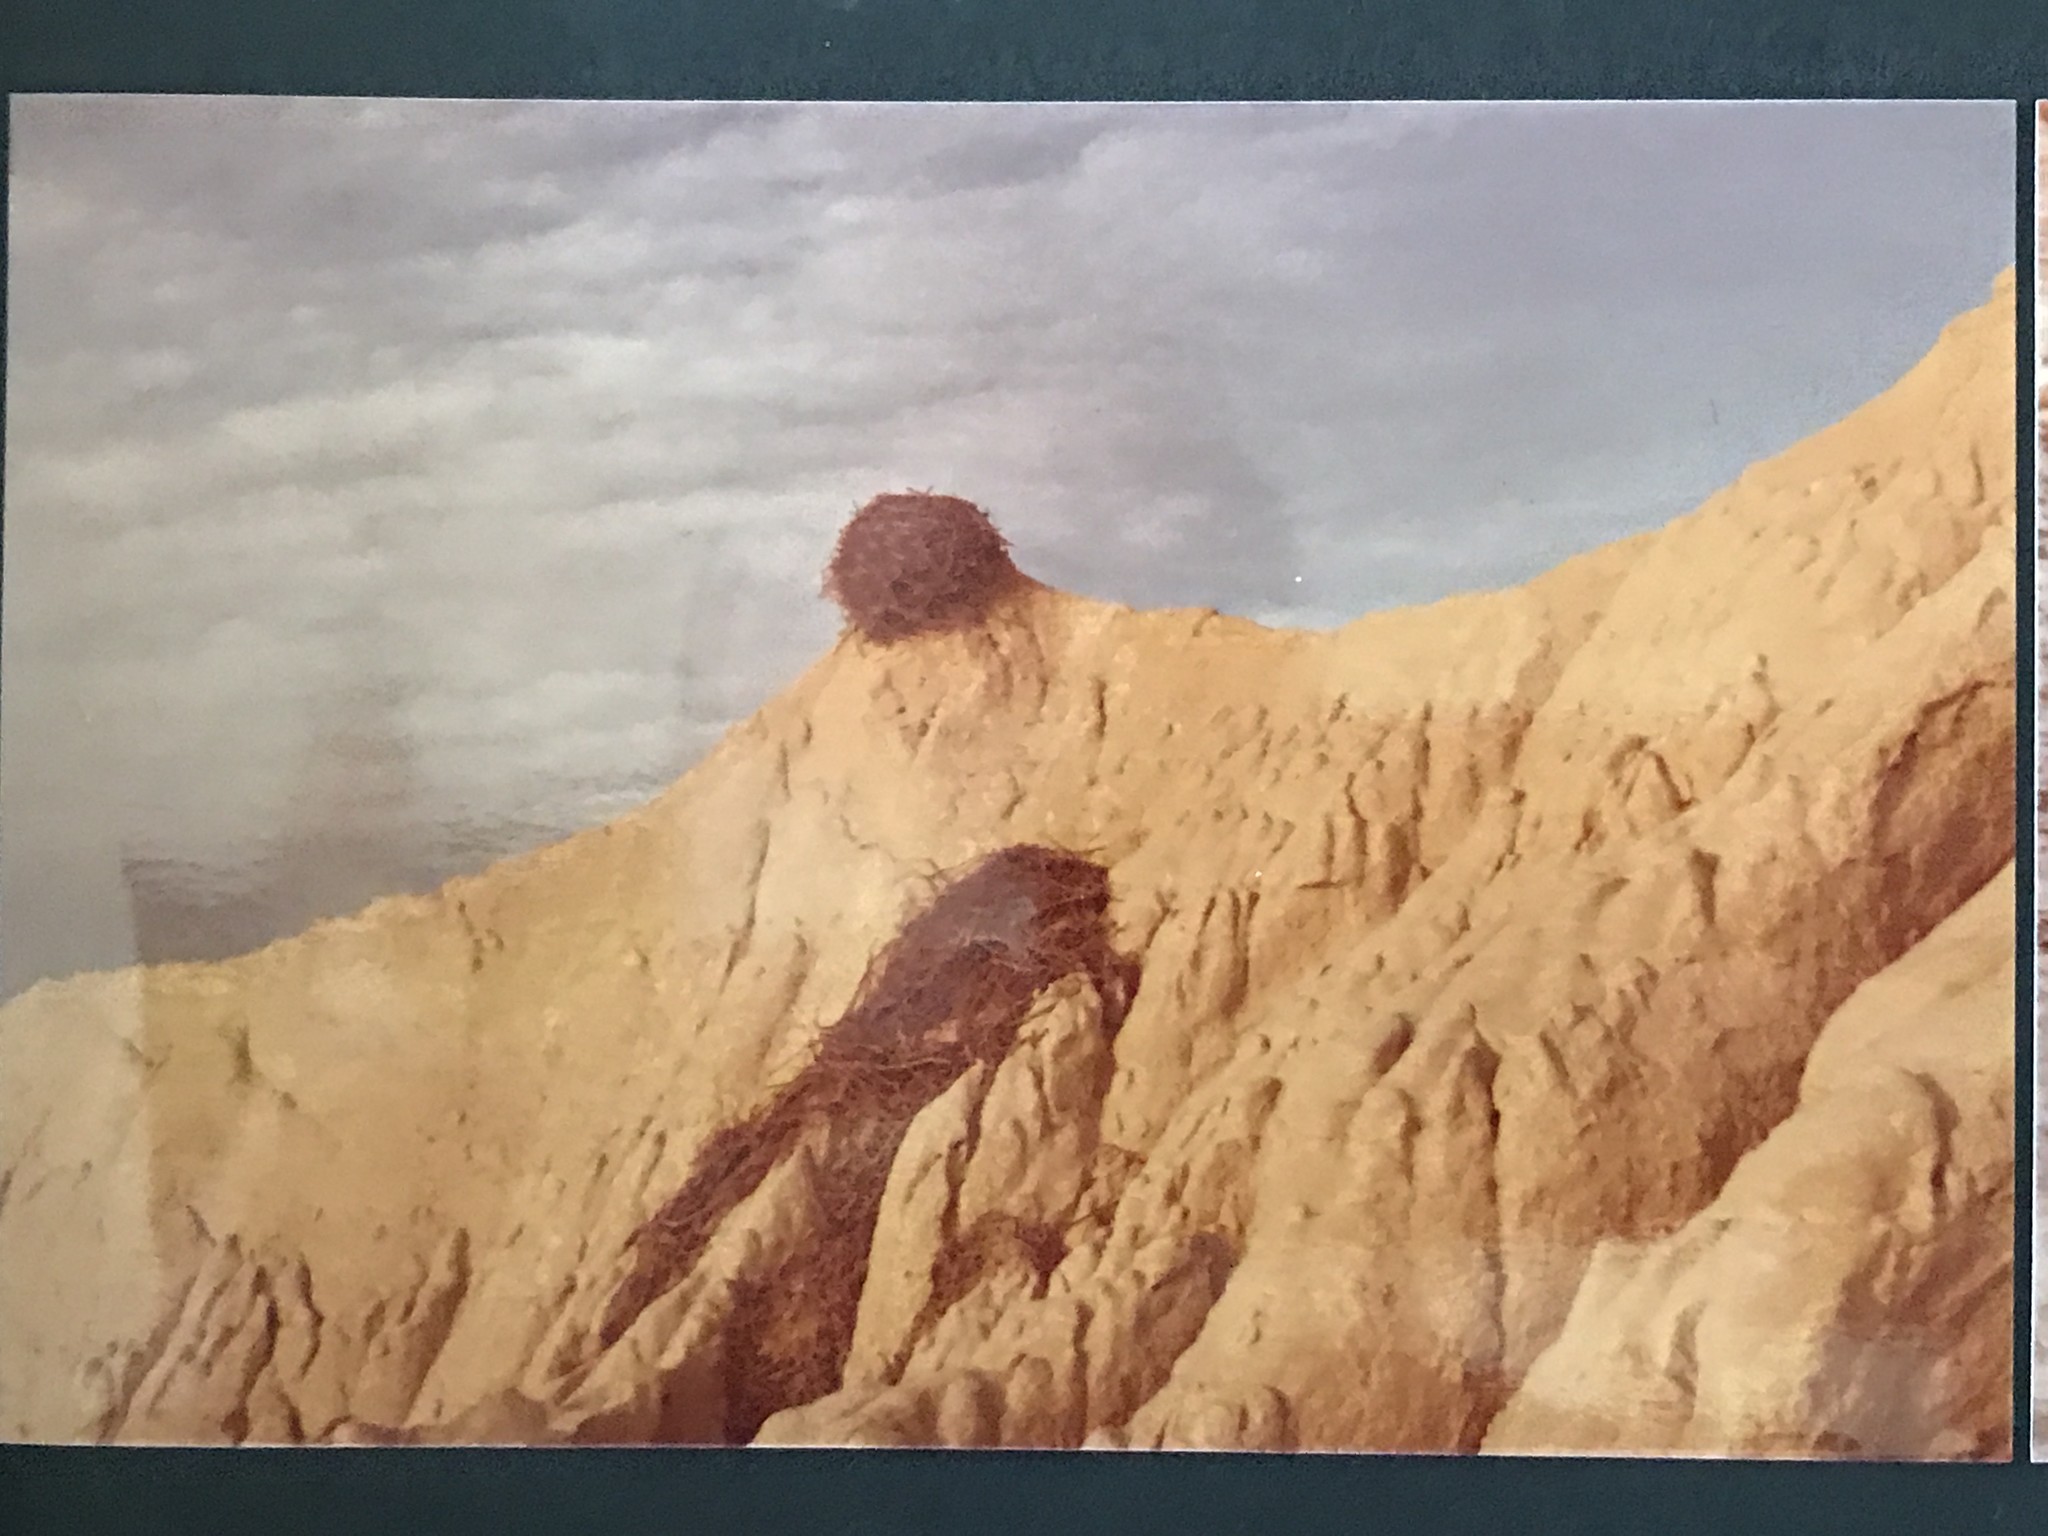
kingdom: Animalia
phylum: Chordata
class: Aves
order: Accipitriformes
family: Accipitridae
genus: Aquila
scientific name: Aquila chrysaetos
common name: Golden eagle
